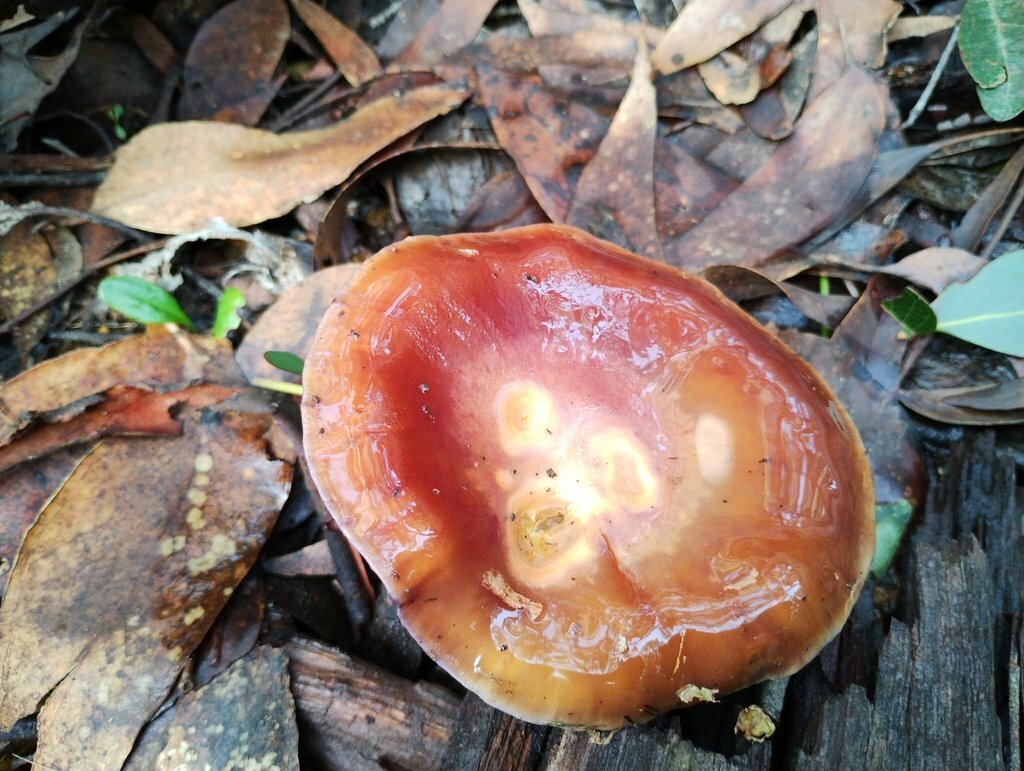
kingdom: Fungi
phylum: Basidiomycota
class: Agaricomycetes
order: Agaricales
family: Cortinariaceae
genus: Cortinarius
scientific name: Cortinarius archeri
